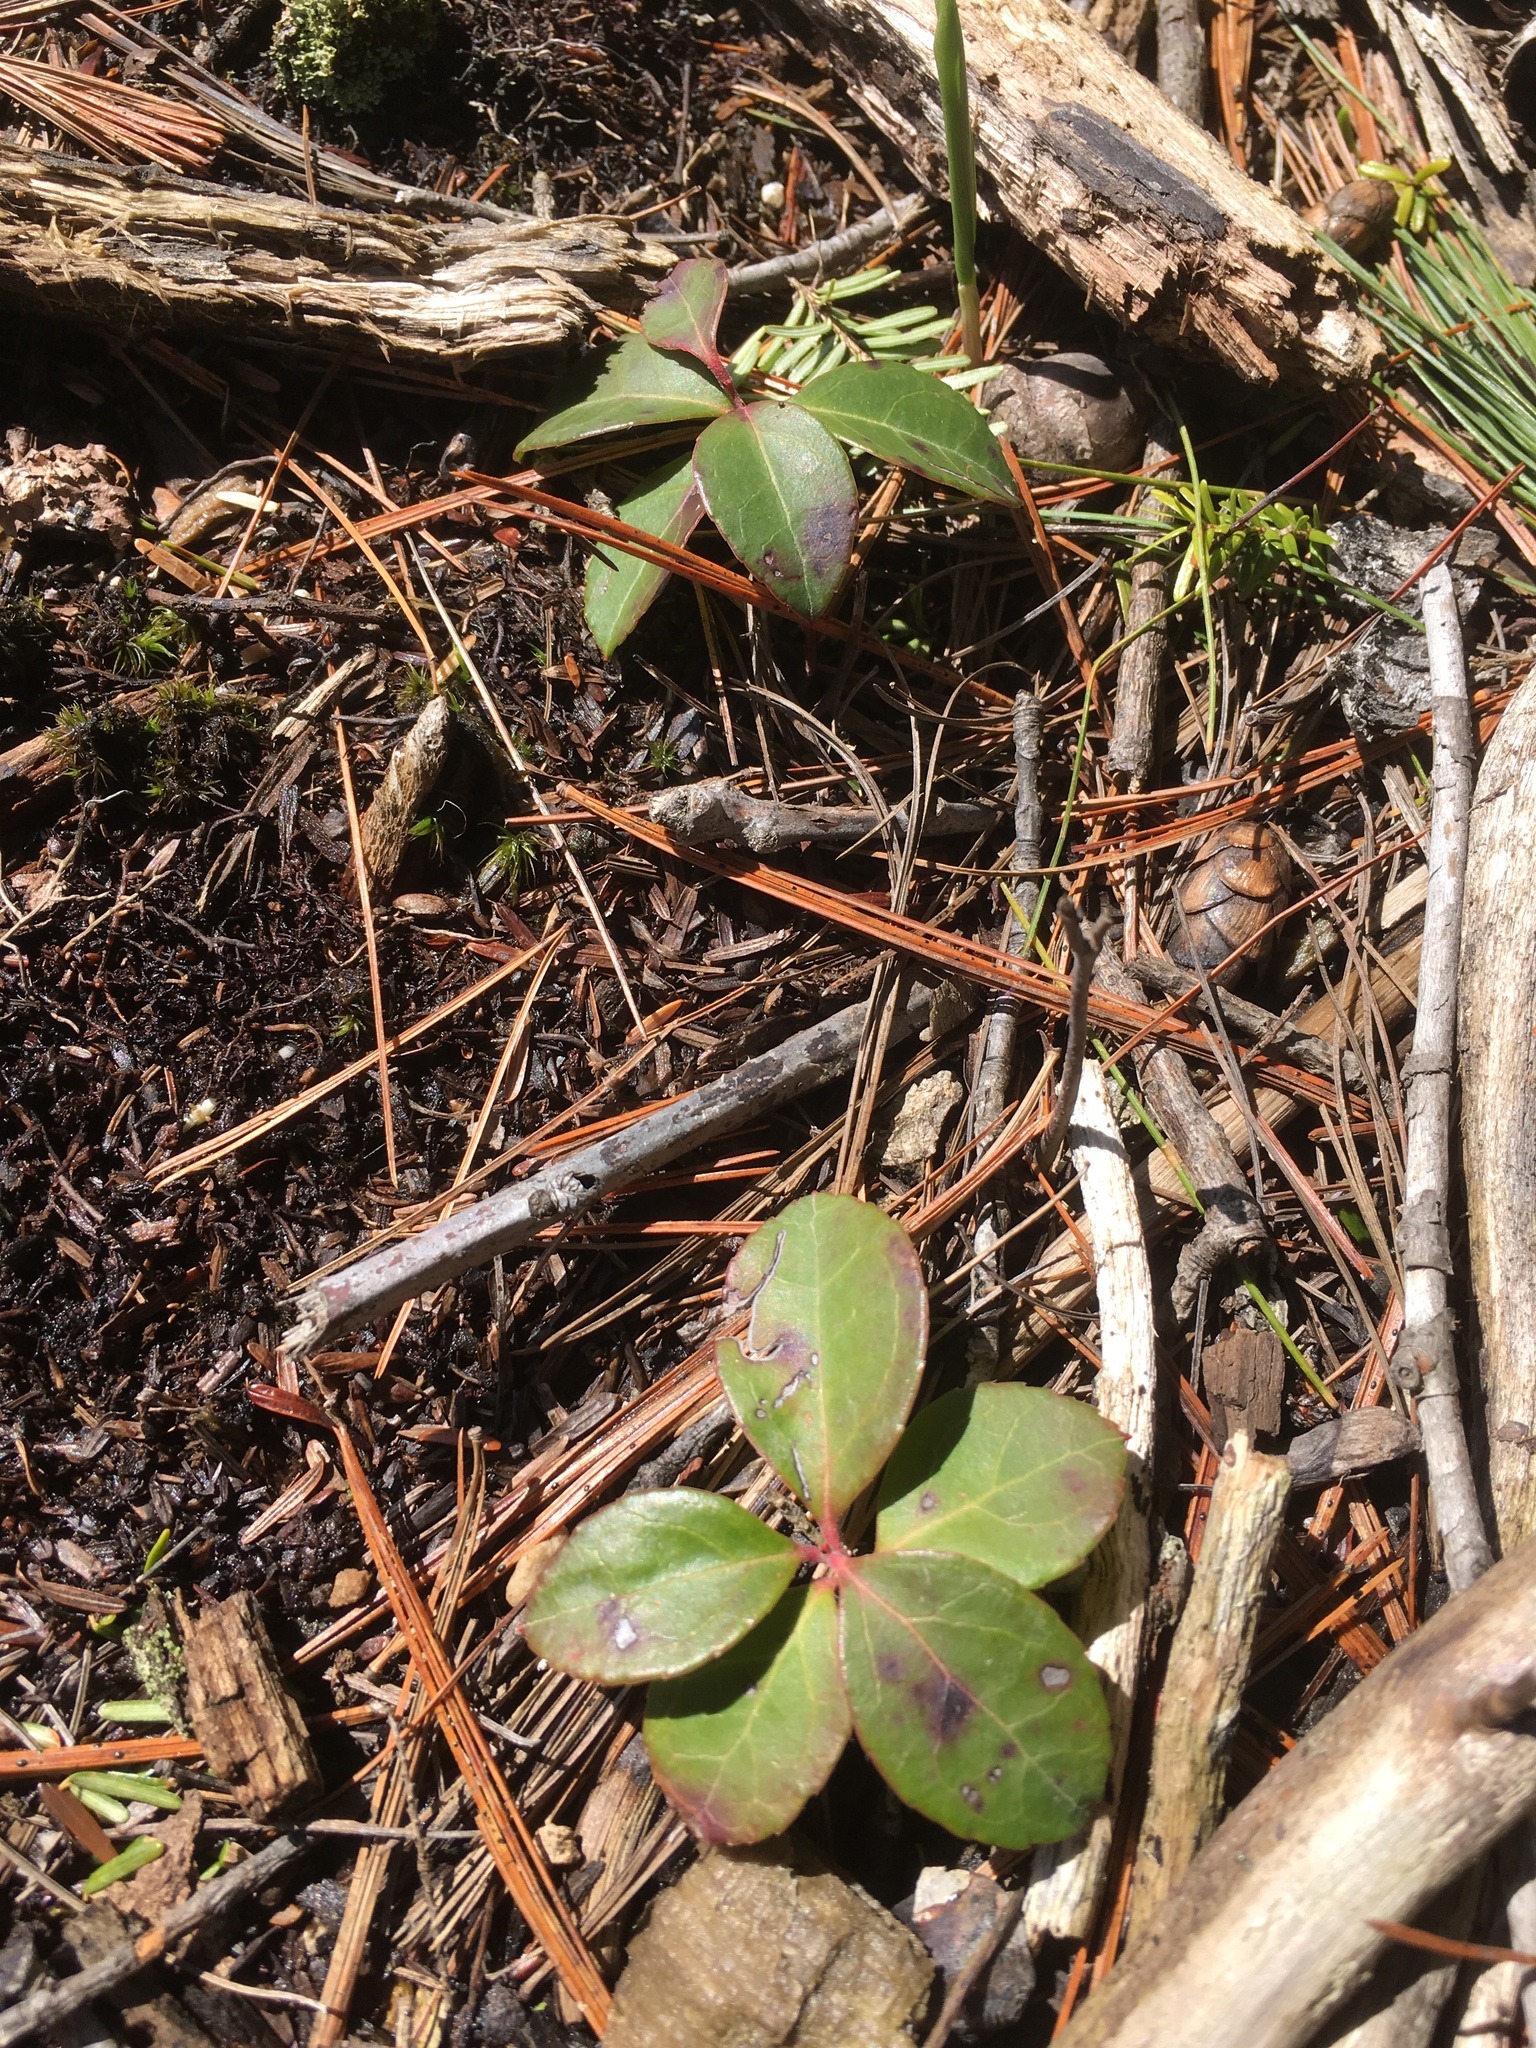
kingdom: Plantae
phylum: Tracheophyta
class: Magnoliopsida
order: Ericales
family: Ericaceae
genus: Gaultheria
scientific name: Gaultheria procumbens
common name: Checkerberry
